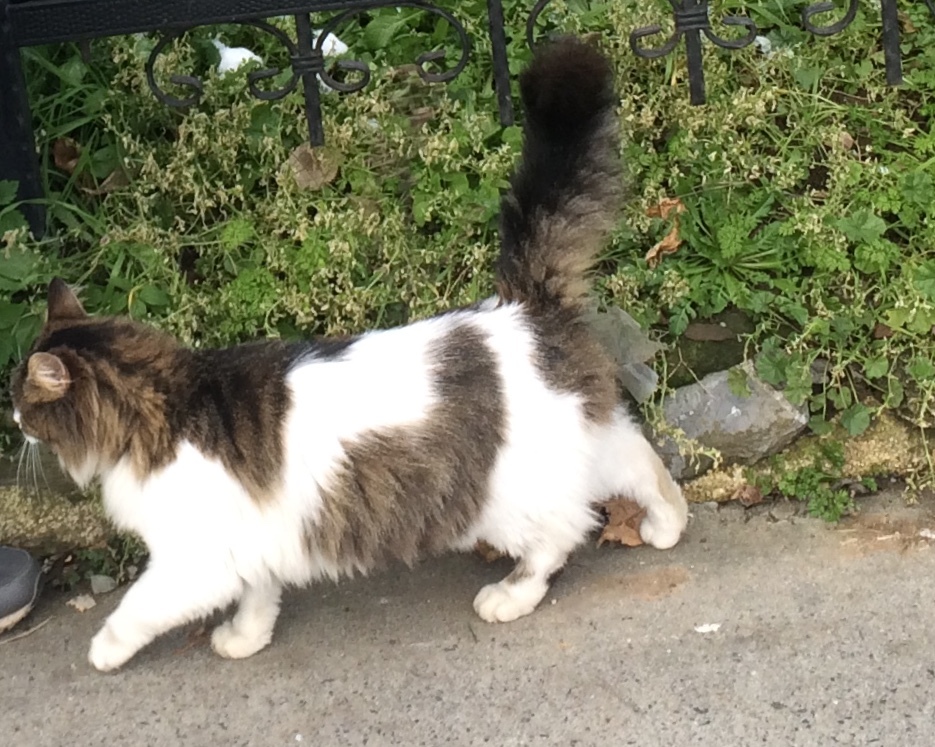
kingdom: Animalia
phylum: Chordata
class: Mammalia
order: Carnivora
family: Felidae
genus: Felis
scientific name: Felis catus
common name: Domestic cat
